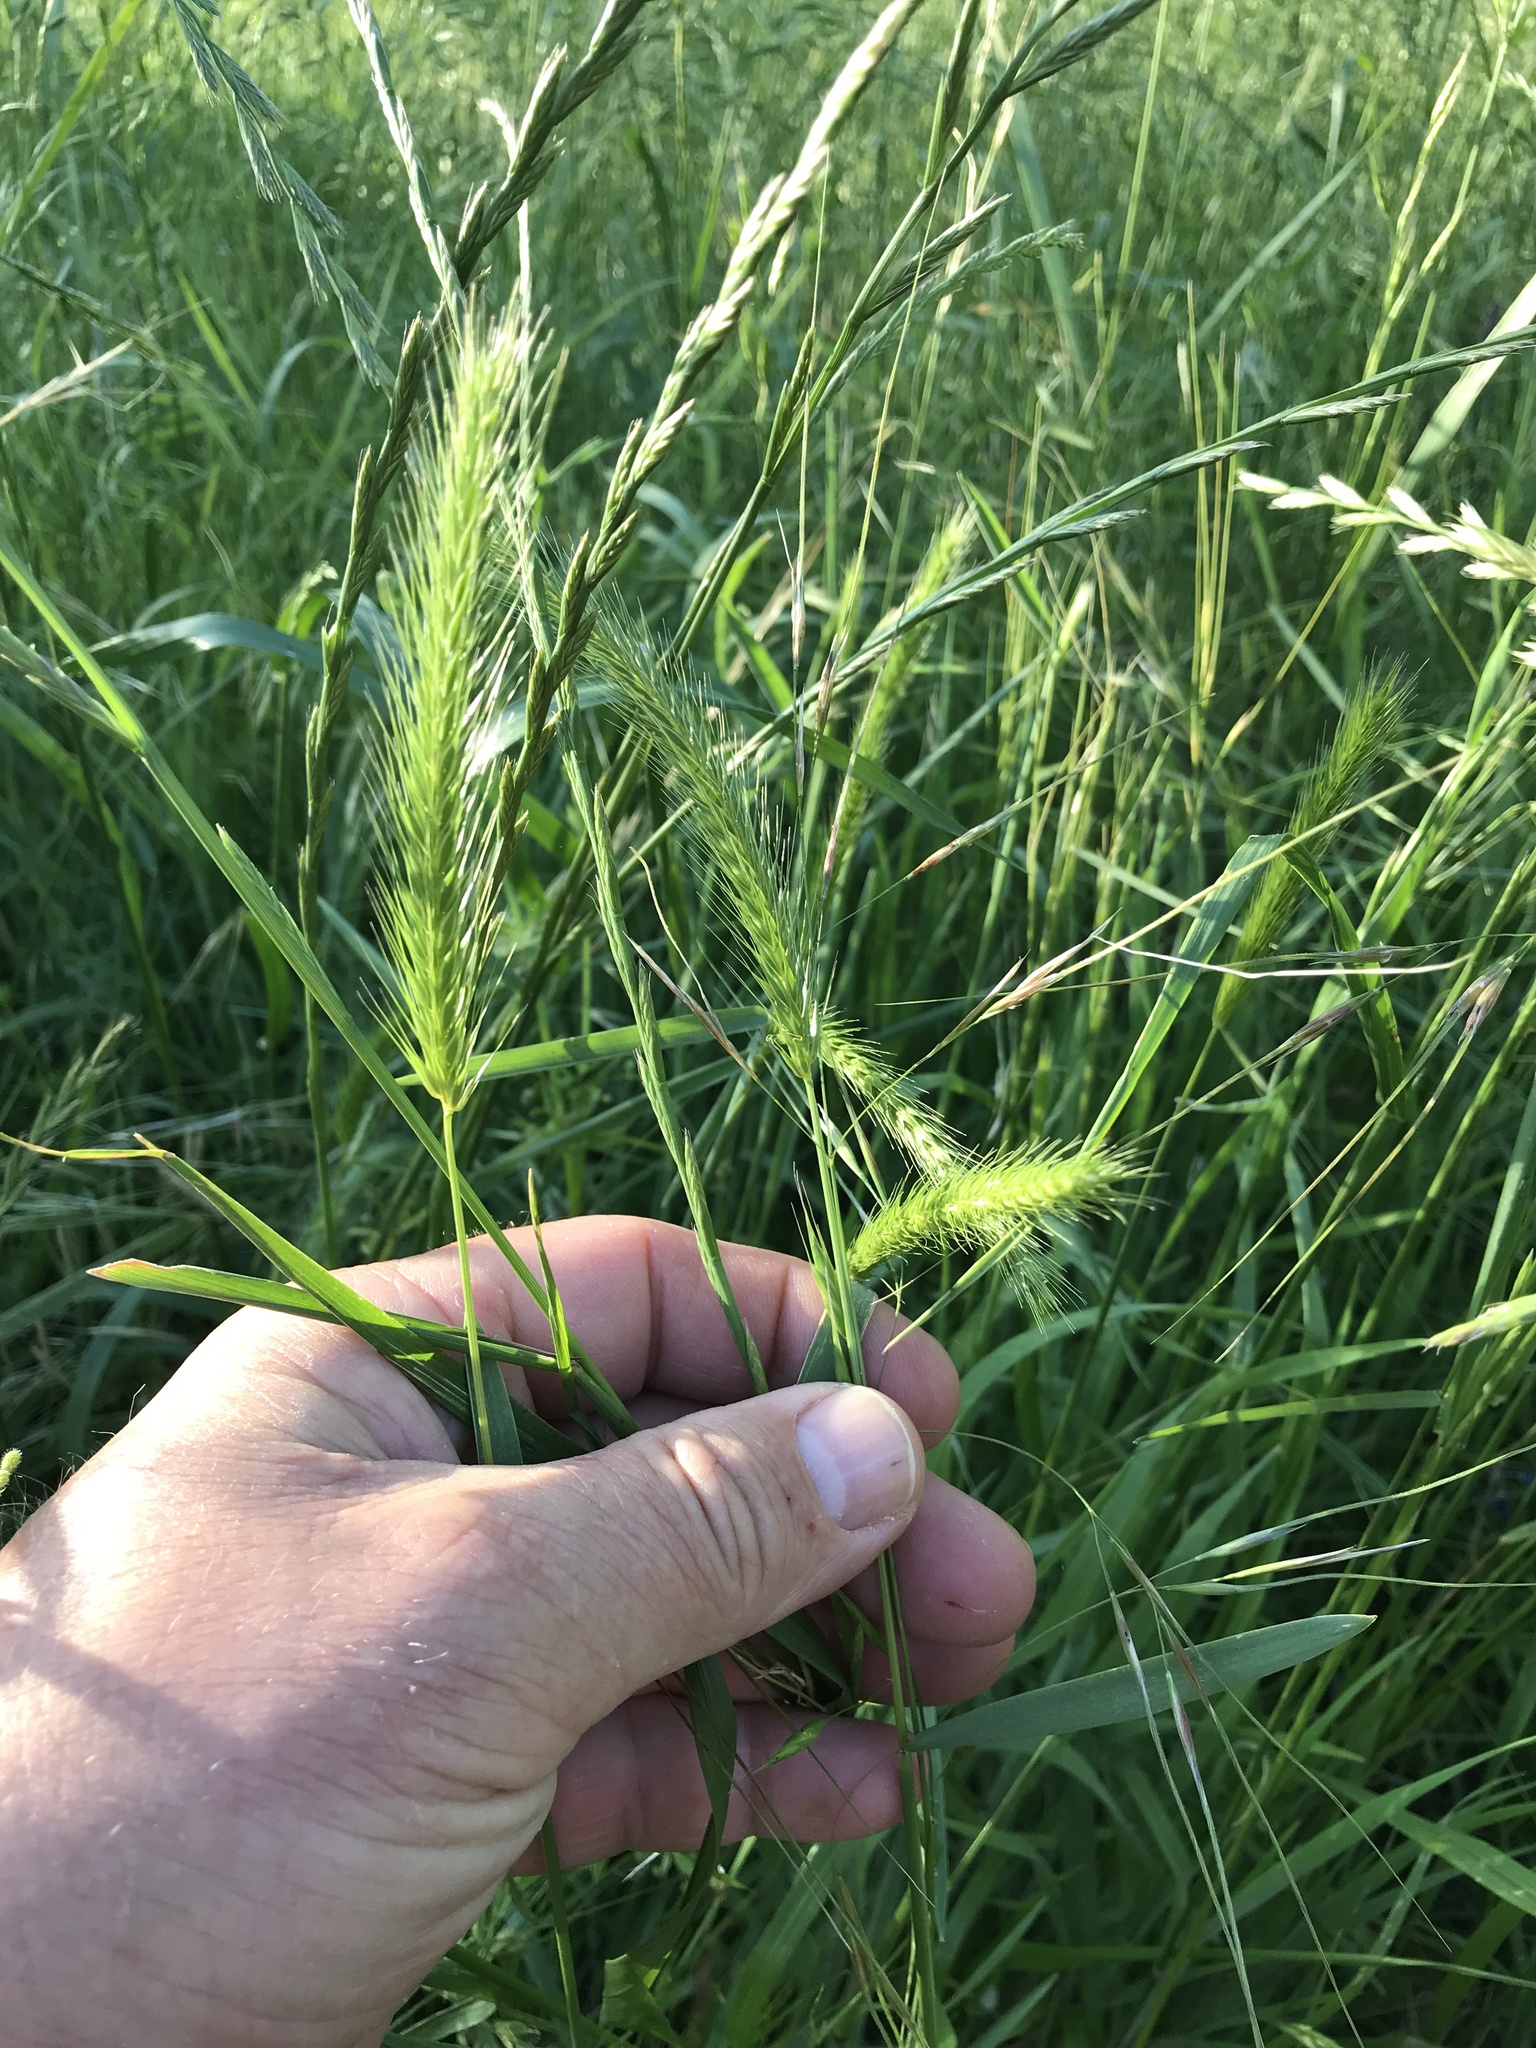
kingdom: Plantae
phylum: Tracheophyta
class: Liliopsida
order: Poales
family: Poaceae
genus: Hordeum
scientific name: Hordeum pusillum
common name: Little barley
